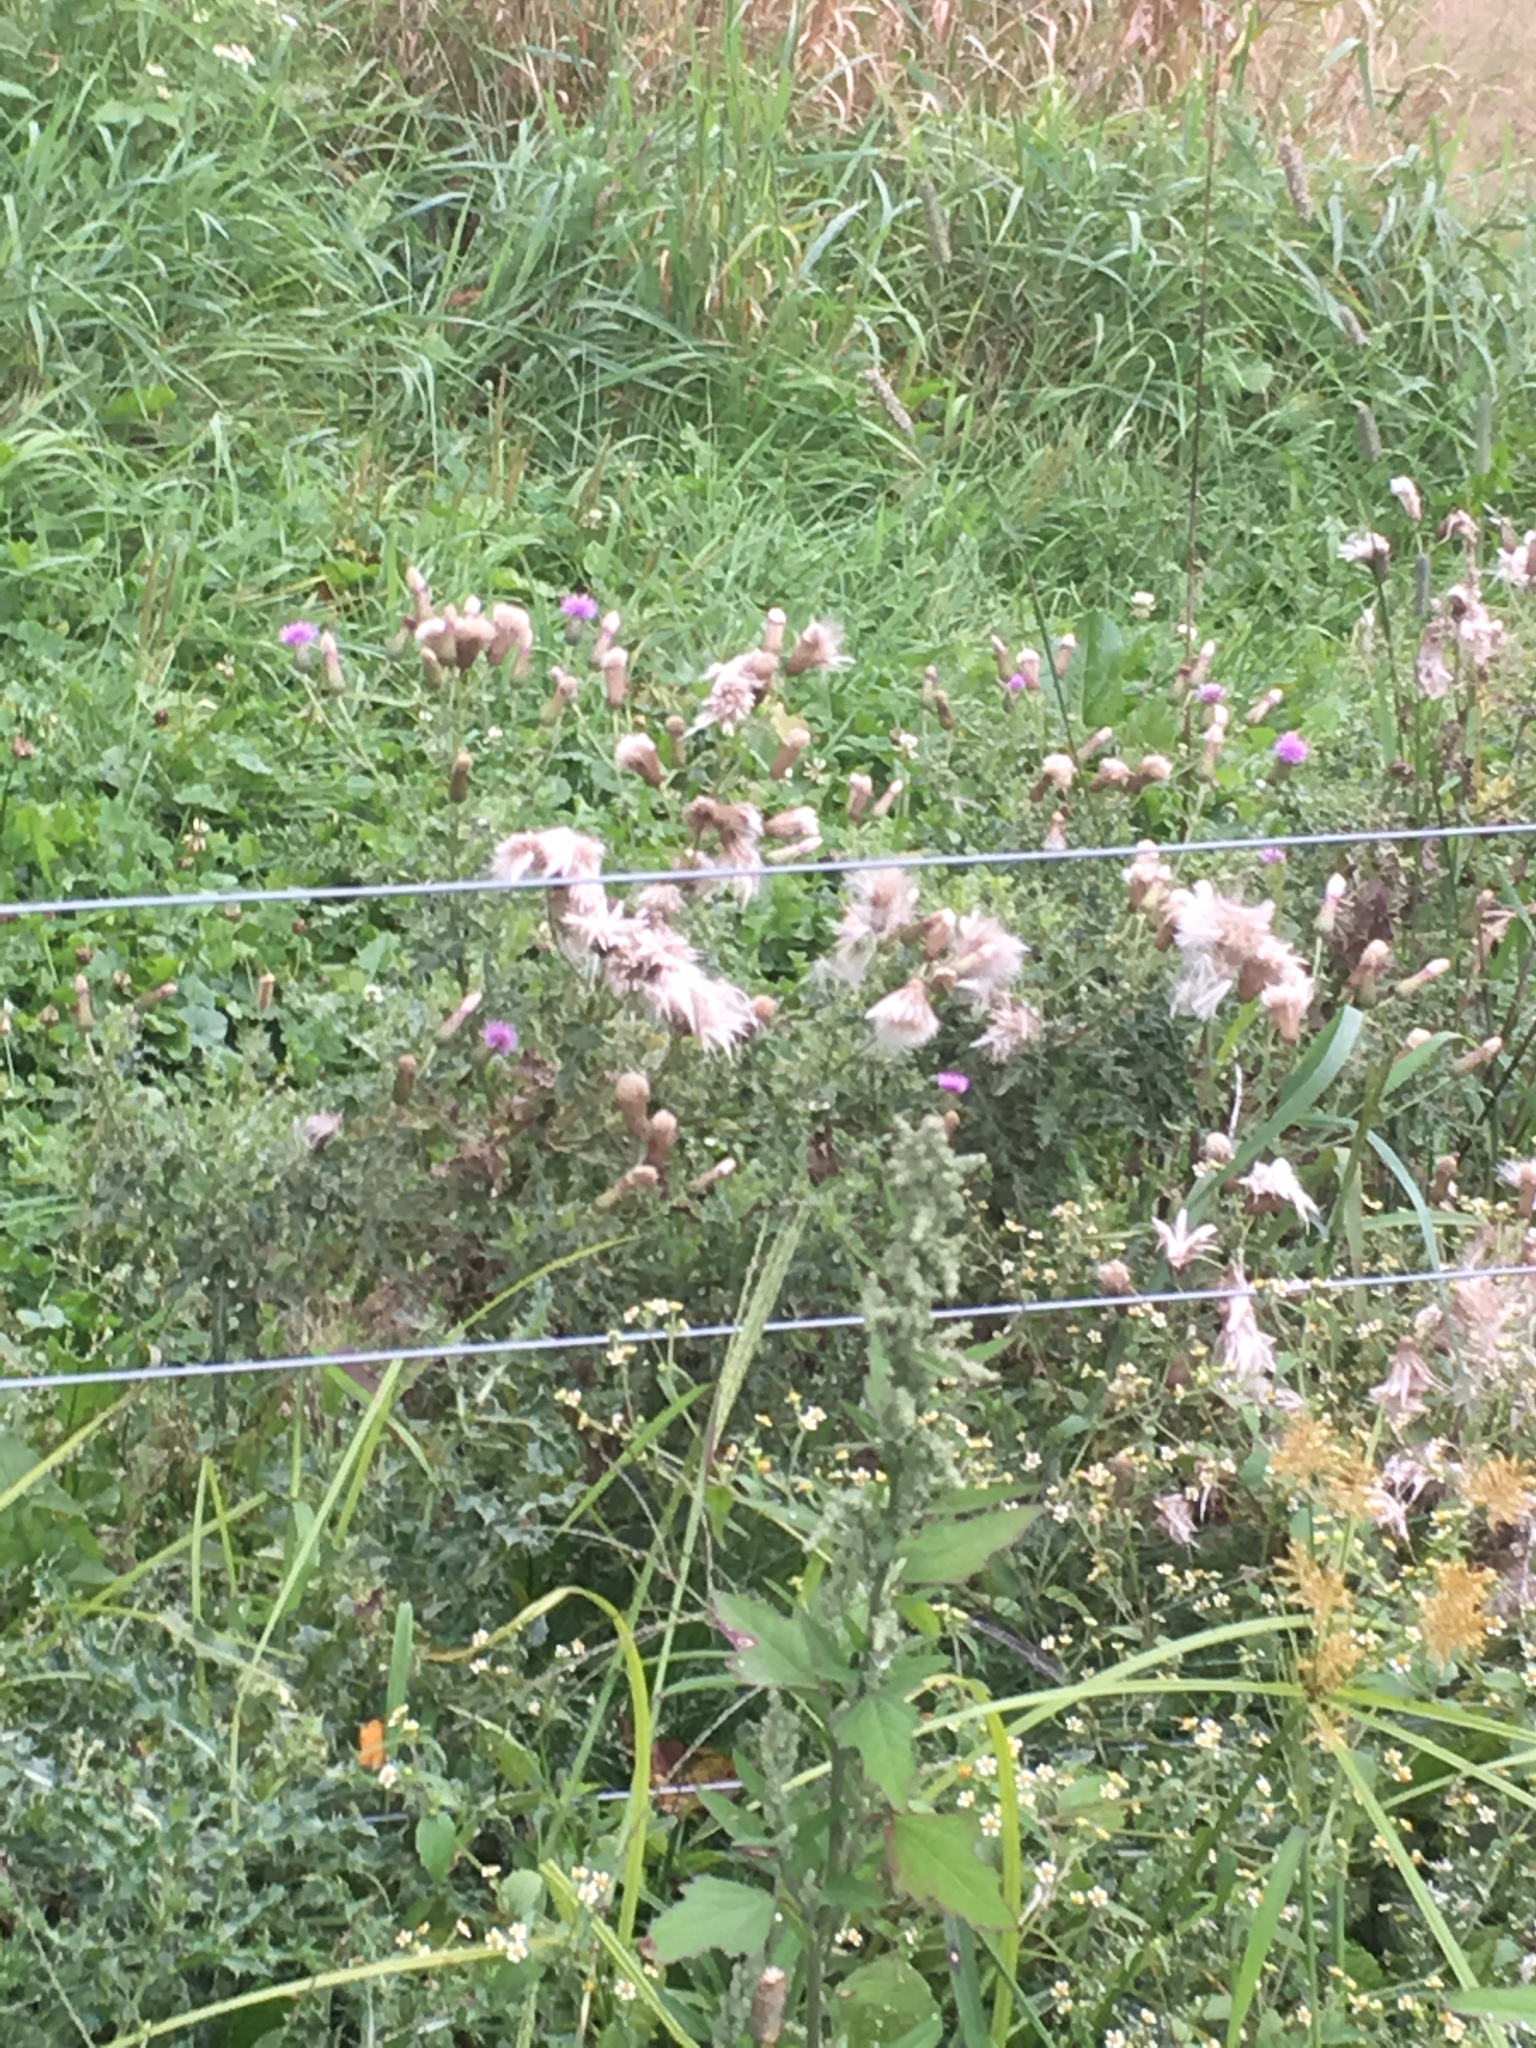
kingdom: Plantae
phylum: Tracheophyta
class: Magnoliopsida
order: Asterales
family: Asteraceae
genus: Cirsium
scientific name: Cirsium arvense
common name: Creeping thistle
